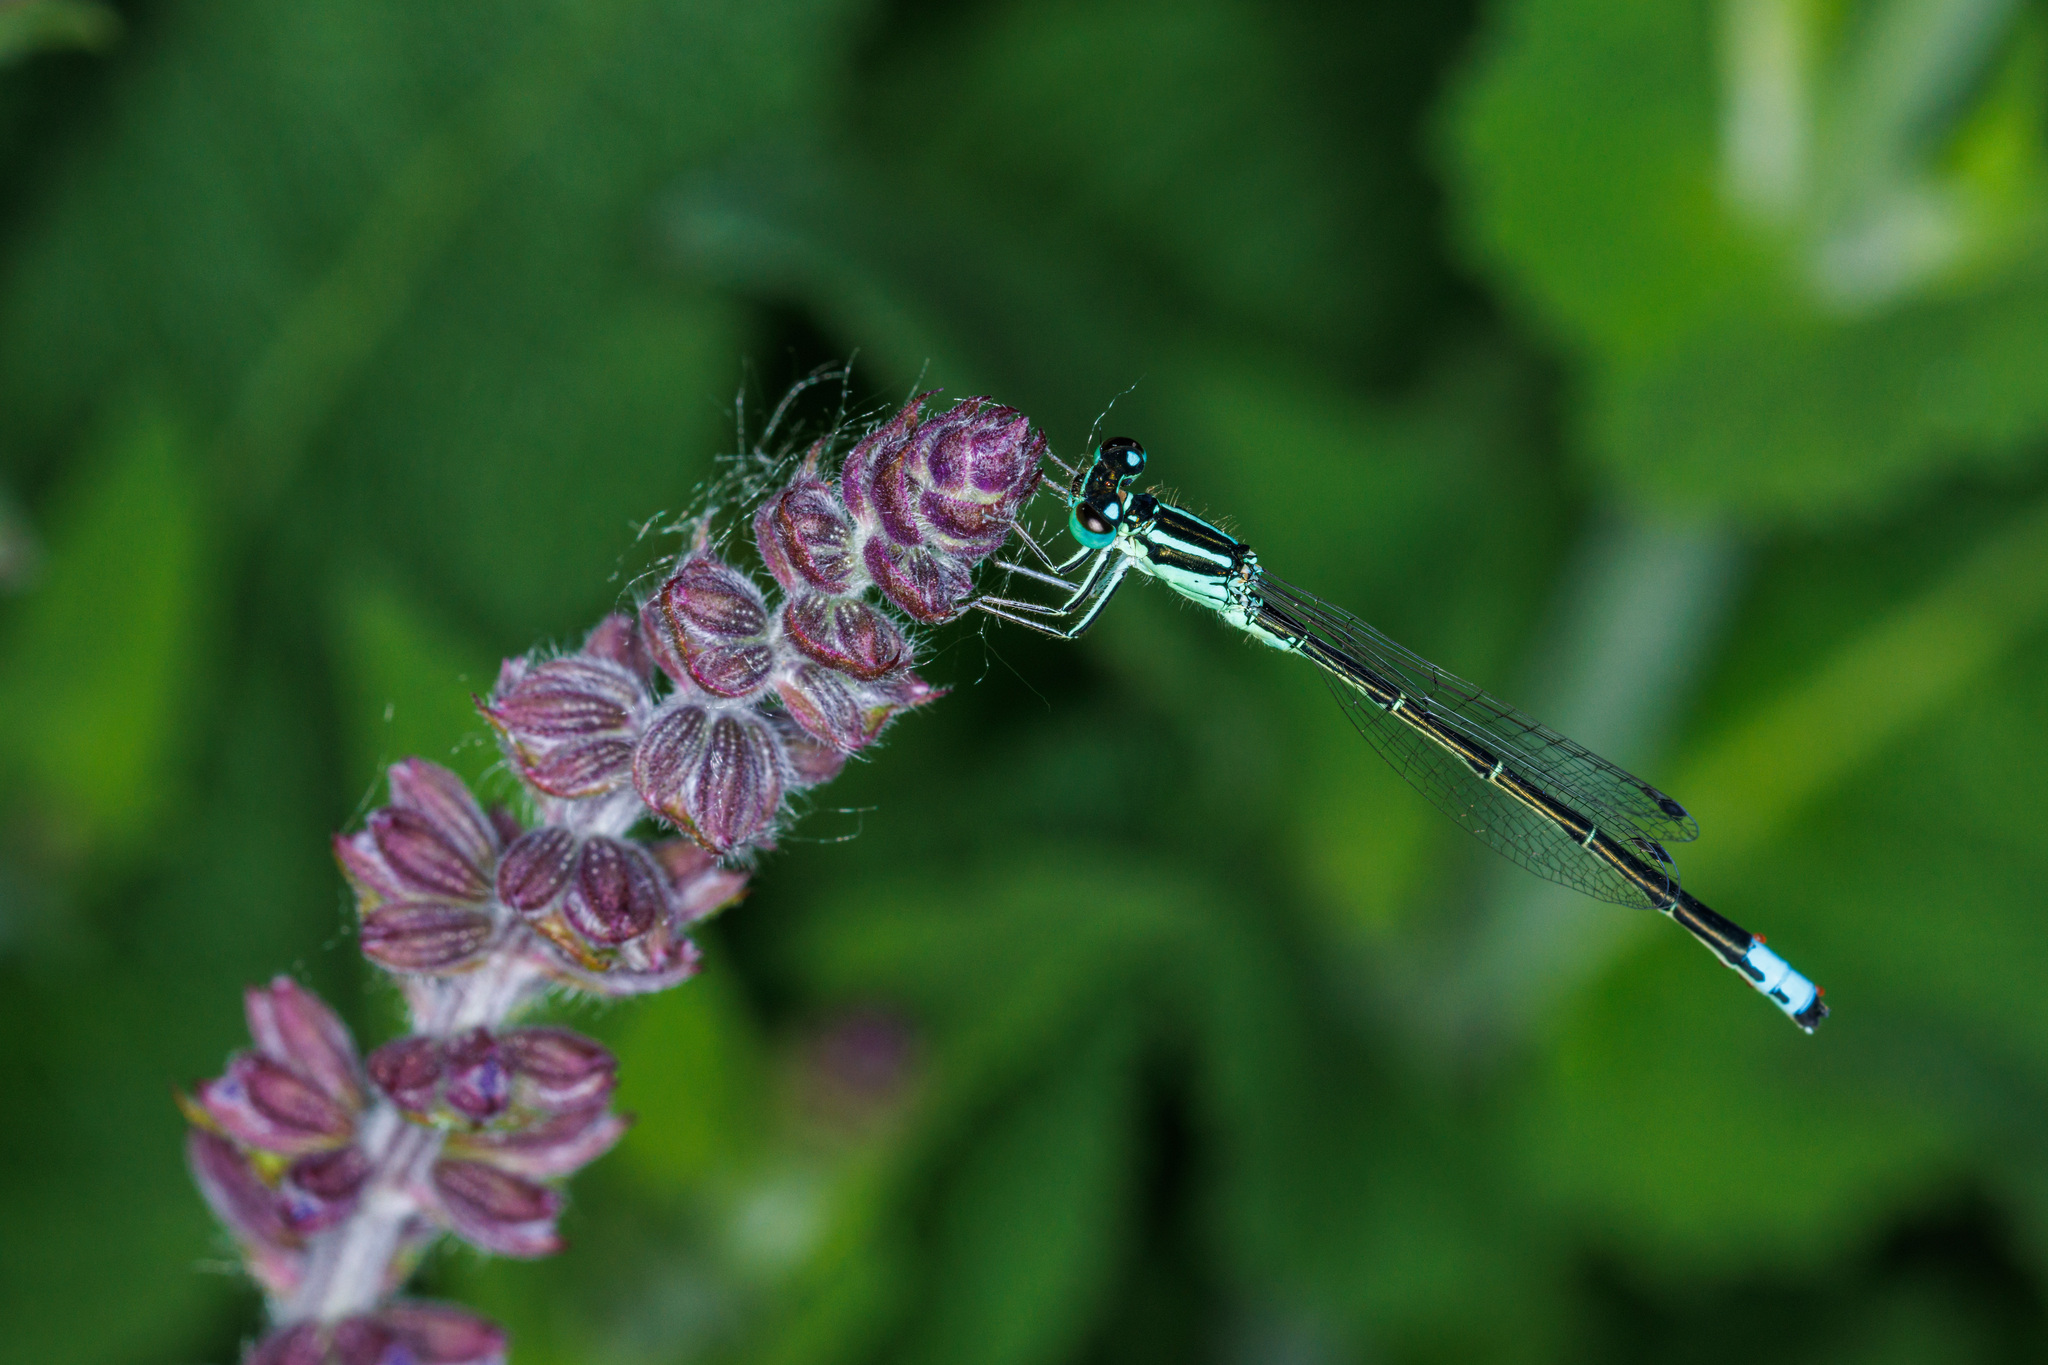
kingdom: Animalia
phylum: Arthropoda
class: Insecta
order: Odonata
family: Coenagrionidae
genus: Ischnura
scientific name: Ischnura perparva
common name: Western forktail
